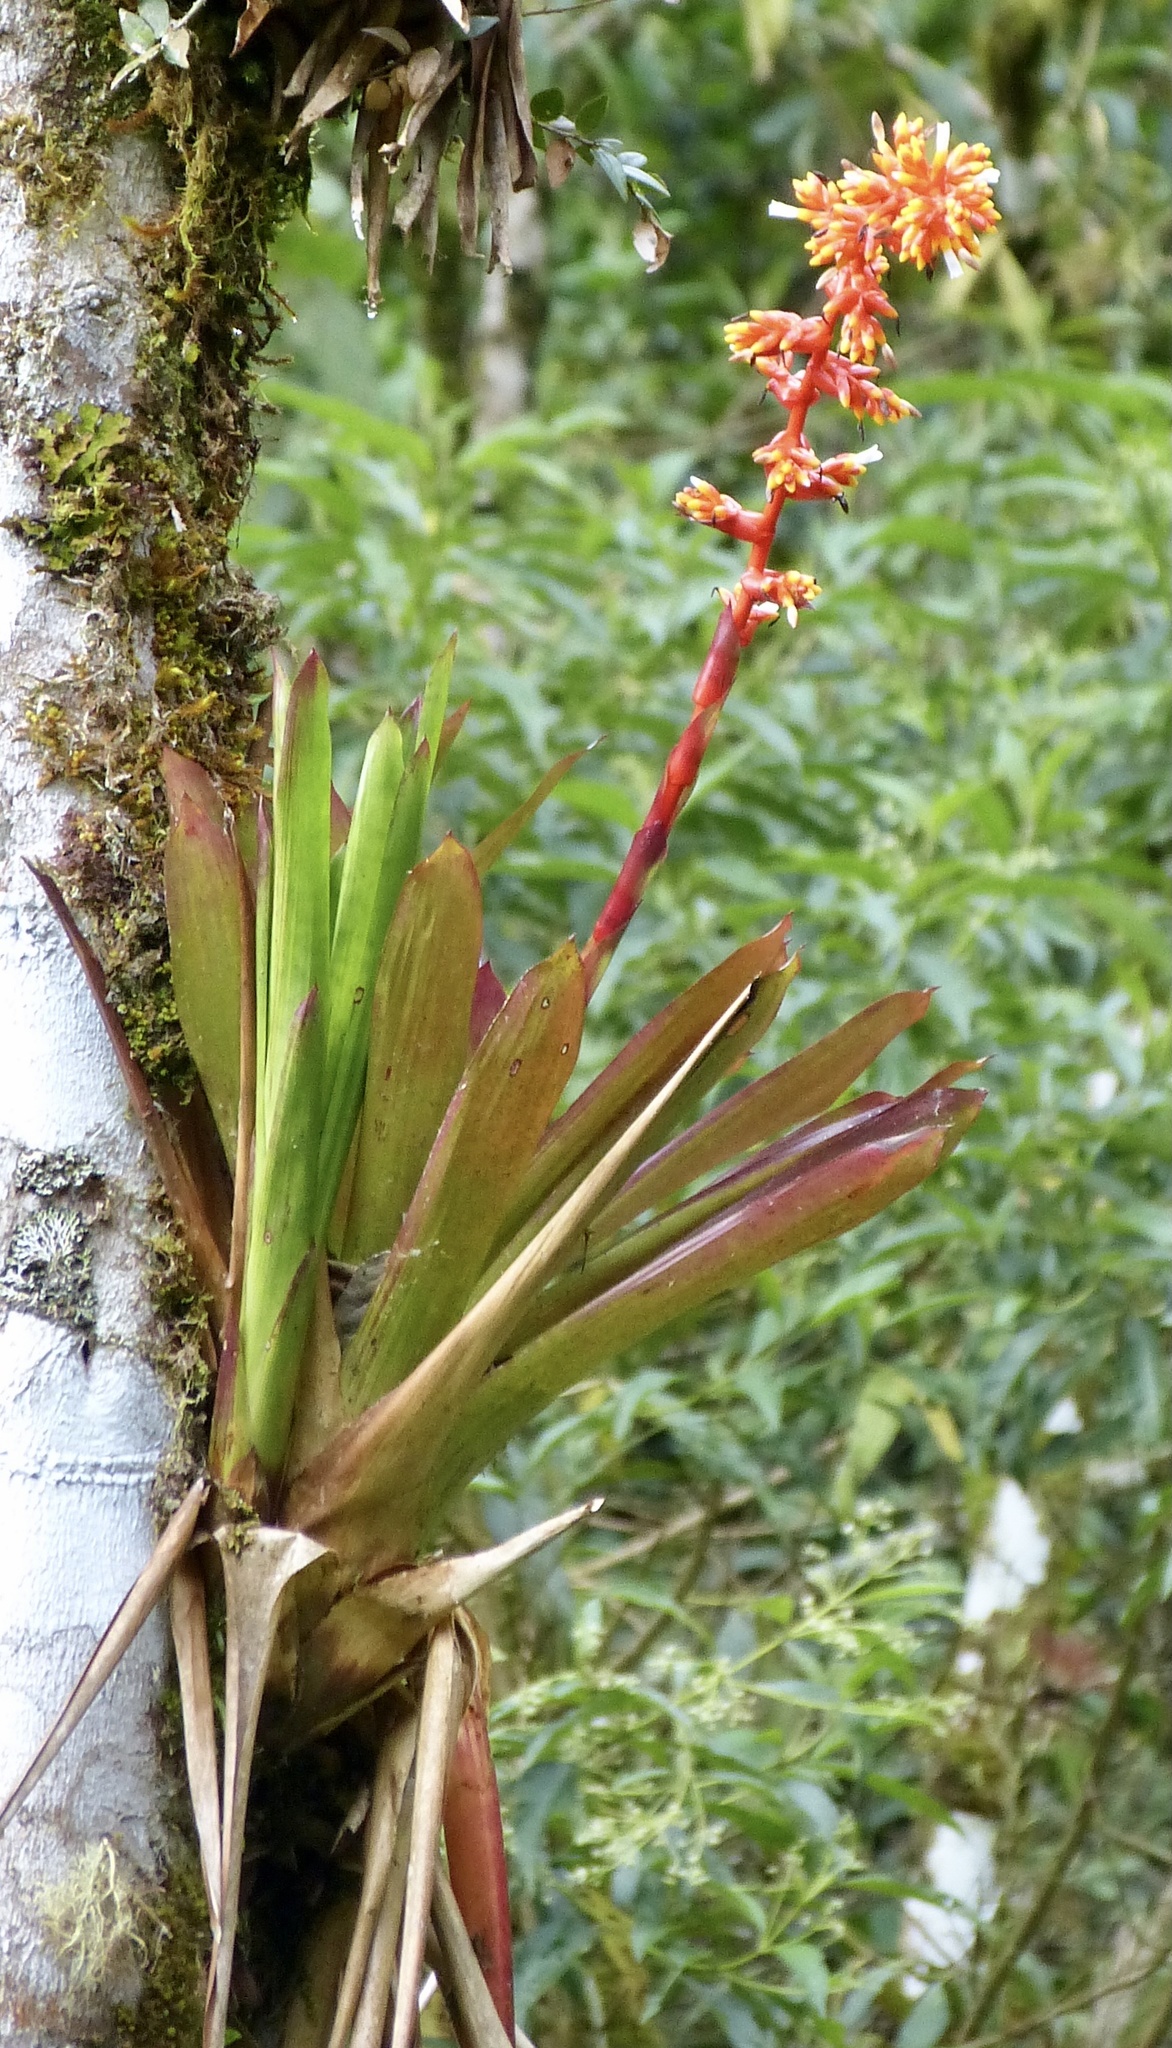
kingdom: Plantae
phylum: Tracheophyta
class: Liliopsida
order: Poales
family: Bromeliaceae
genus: Guzmania
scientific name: Guzmania multiflora
